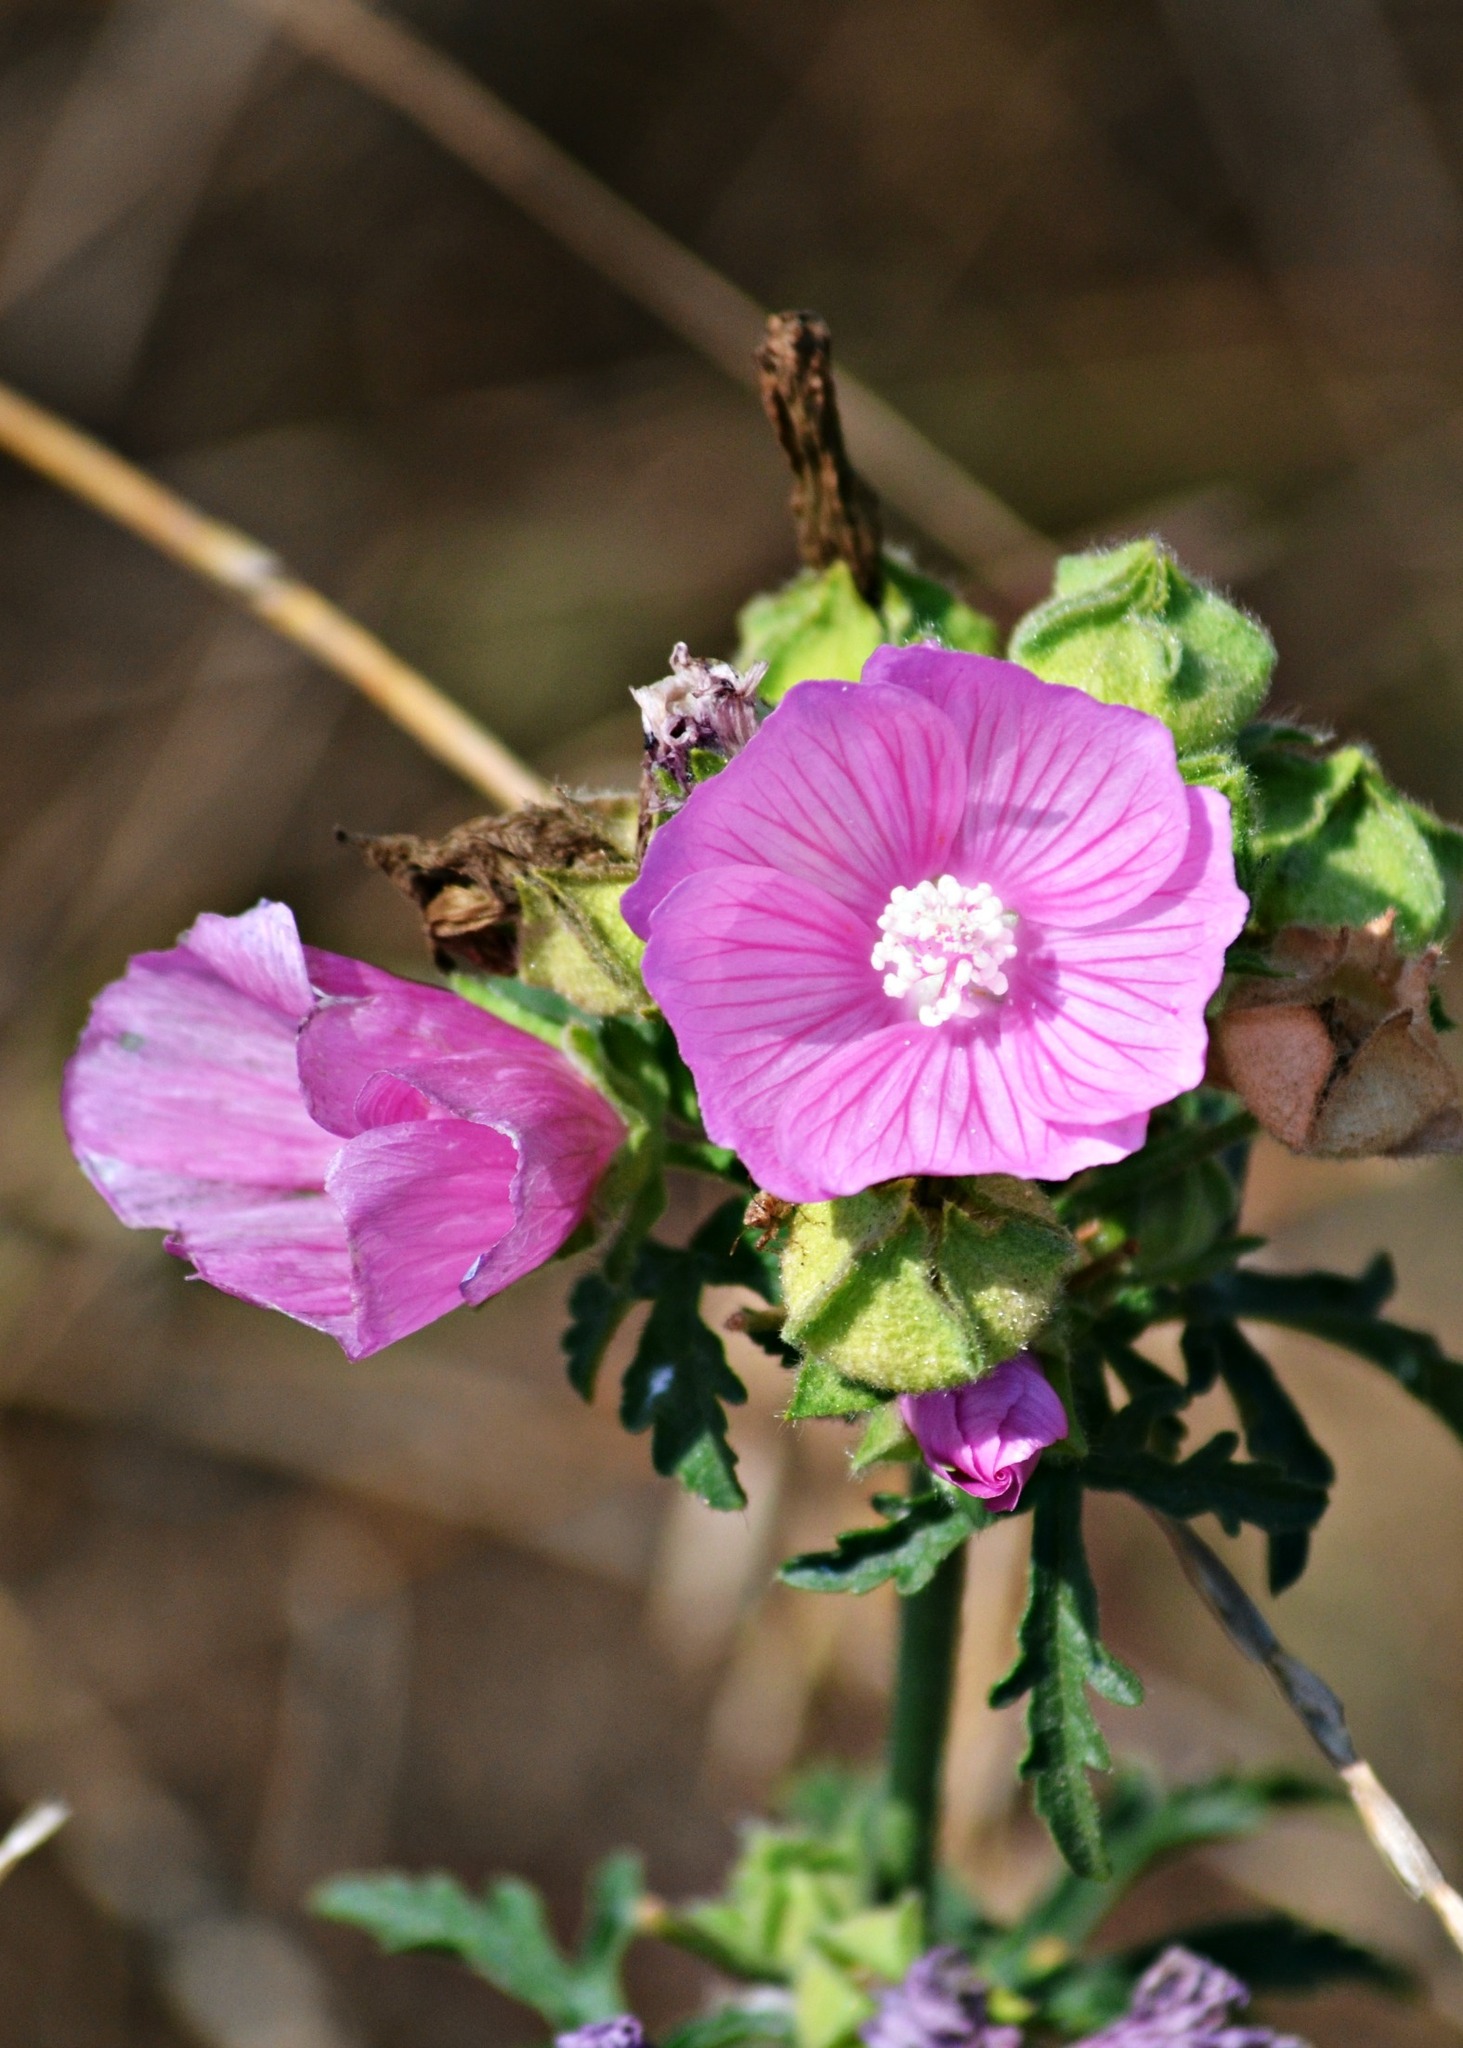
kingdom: Plantae
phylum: Tracheophyta
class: Magnoliopsida
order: Malvales
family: Malvaceae
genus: Malva
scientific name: Malva moschata
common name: Musk mallow
